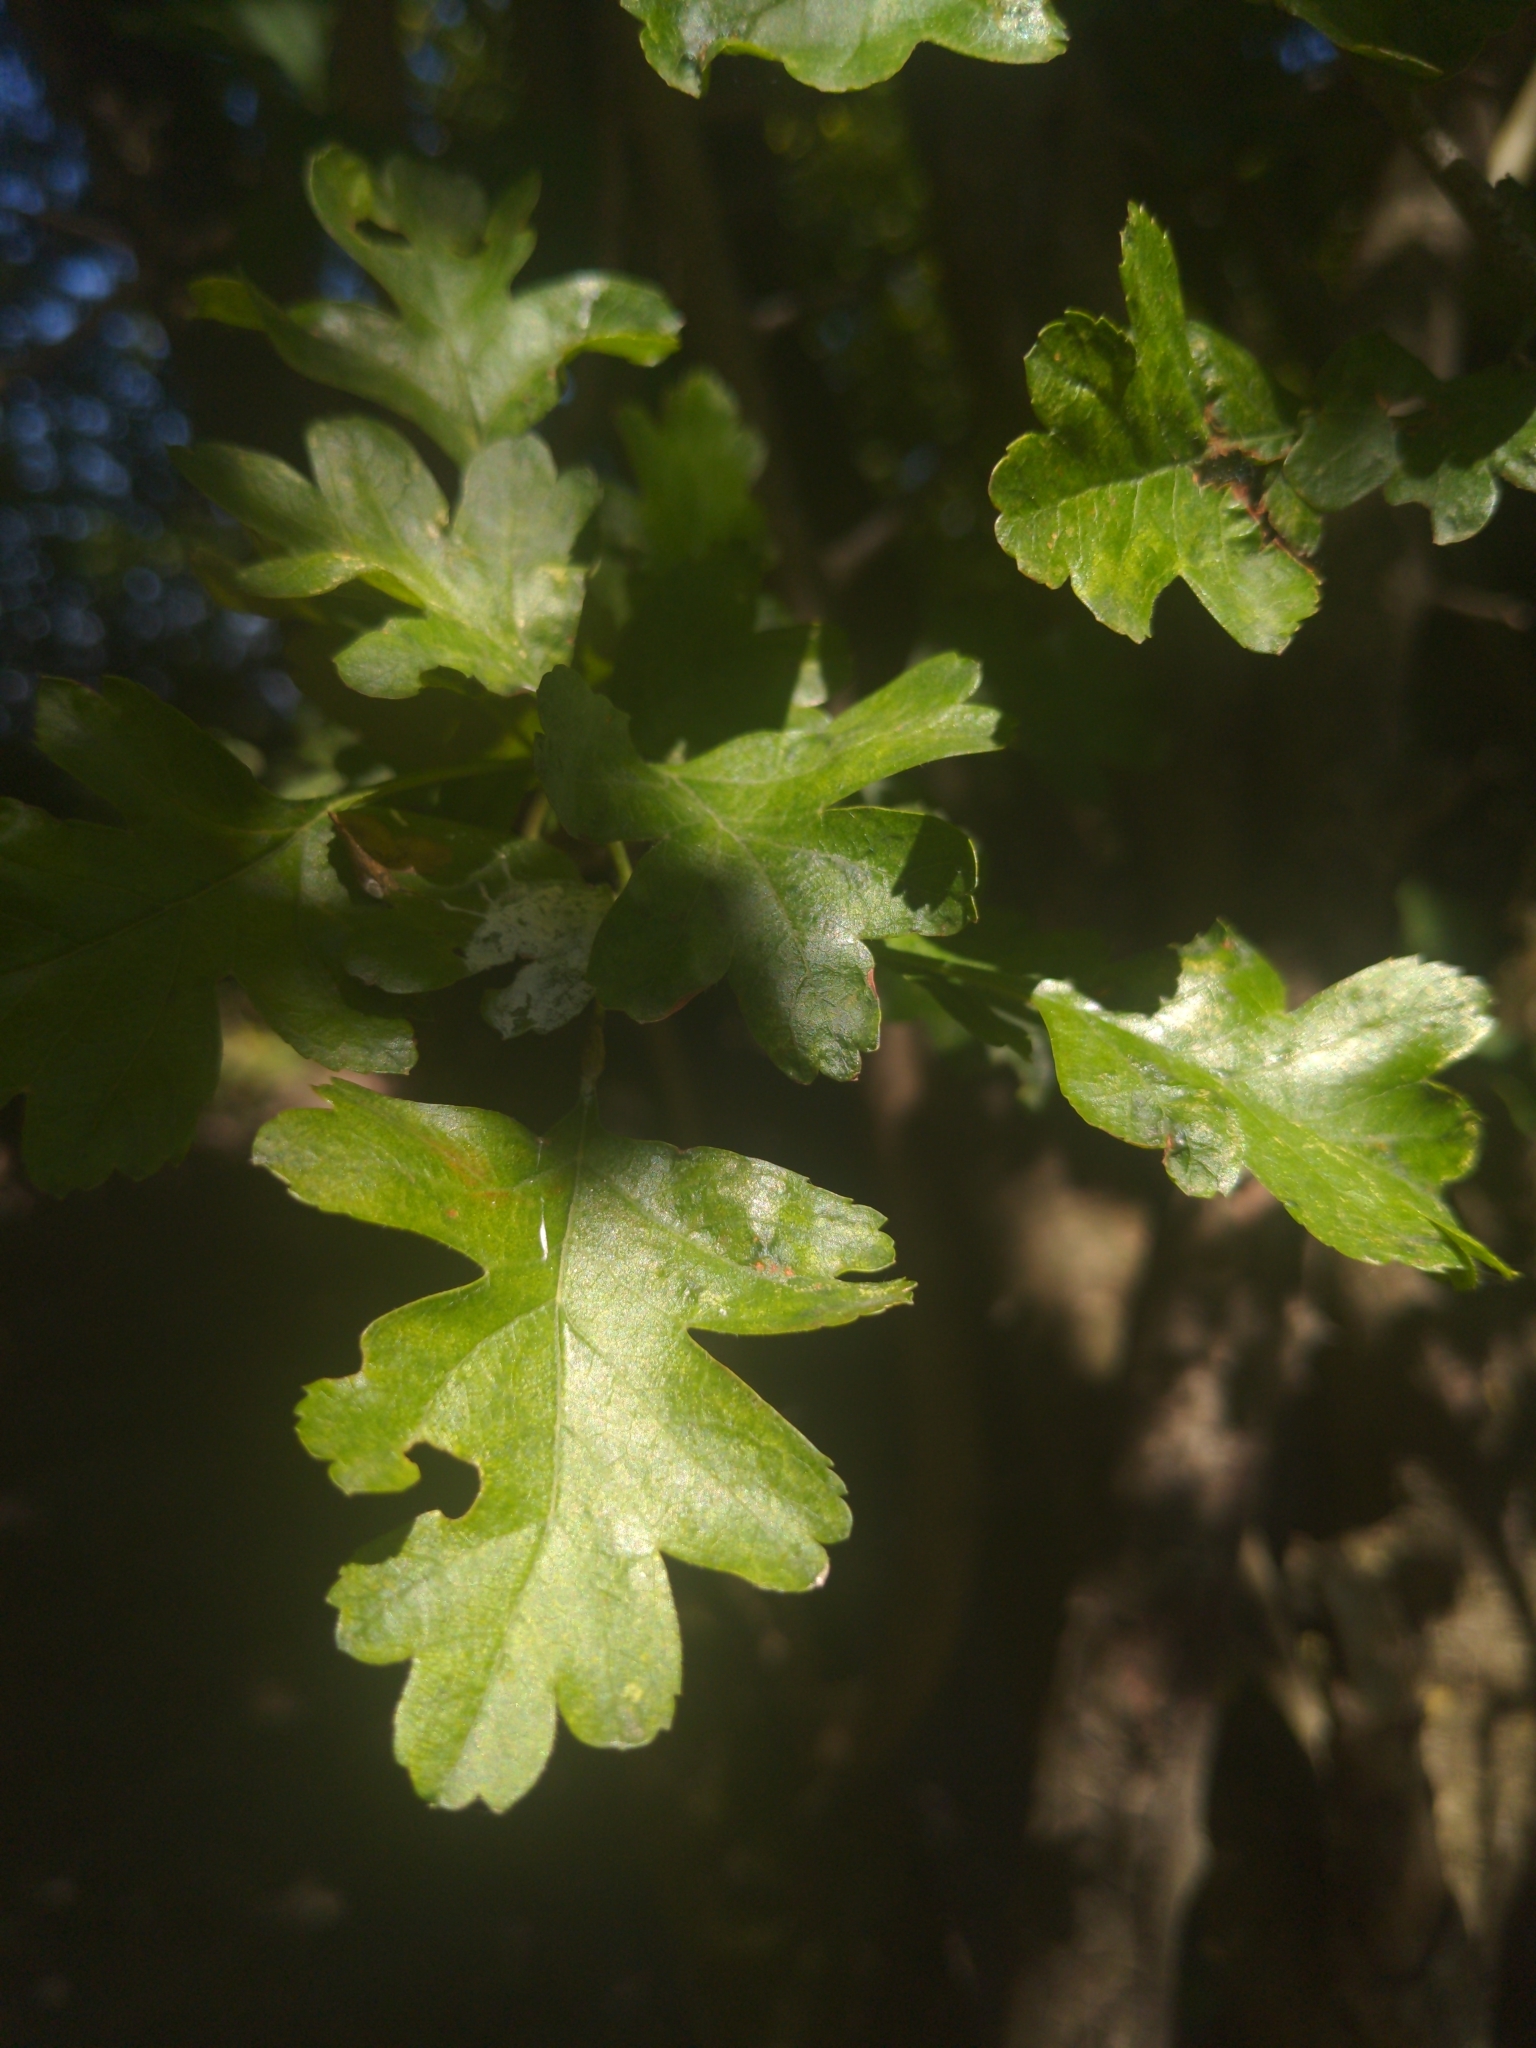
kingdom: Plantae
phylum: Tracheophyta
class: Magnoliopsida
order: Rosales
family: Rosaceae
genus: Crataegus
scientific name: Crataegus monogyna
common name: Hawthorn
